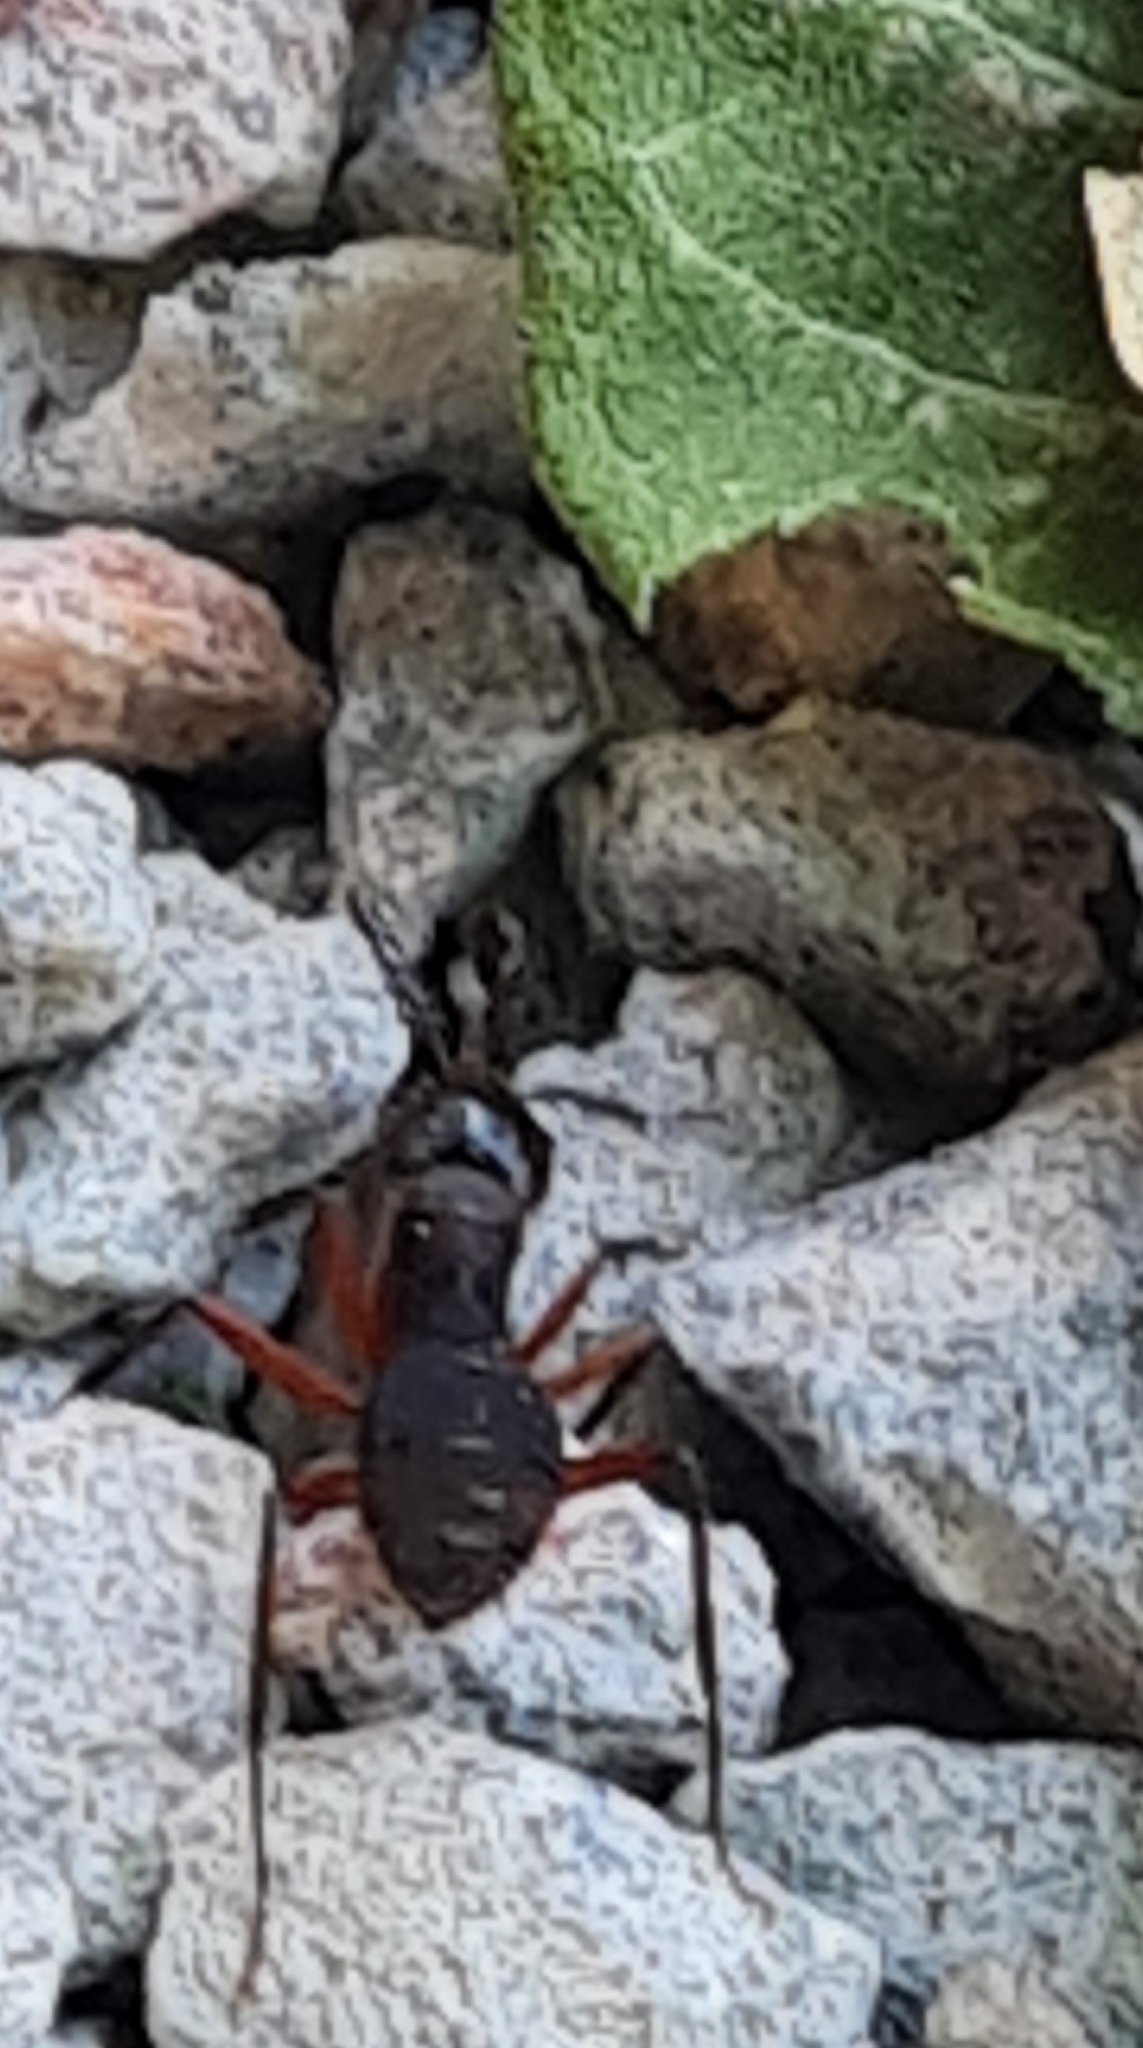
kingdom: Animalia
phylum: Arthropoda
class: Insecta
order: Hymenoptera
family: Formicidae
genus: Camponotus
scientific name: Camponotus rufipes
